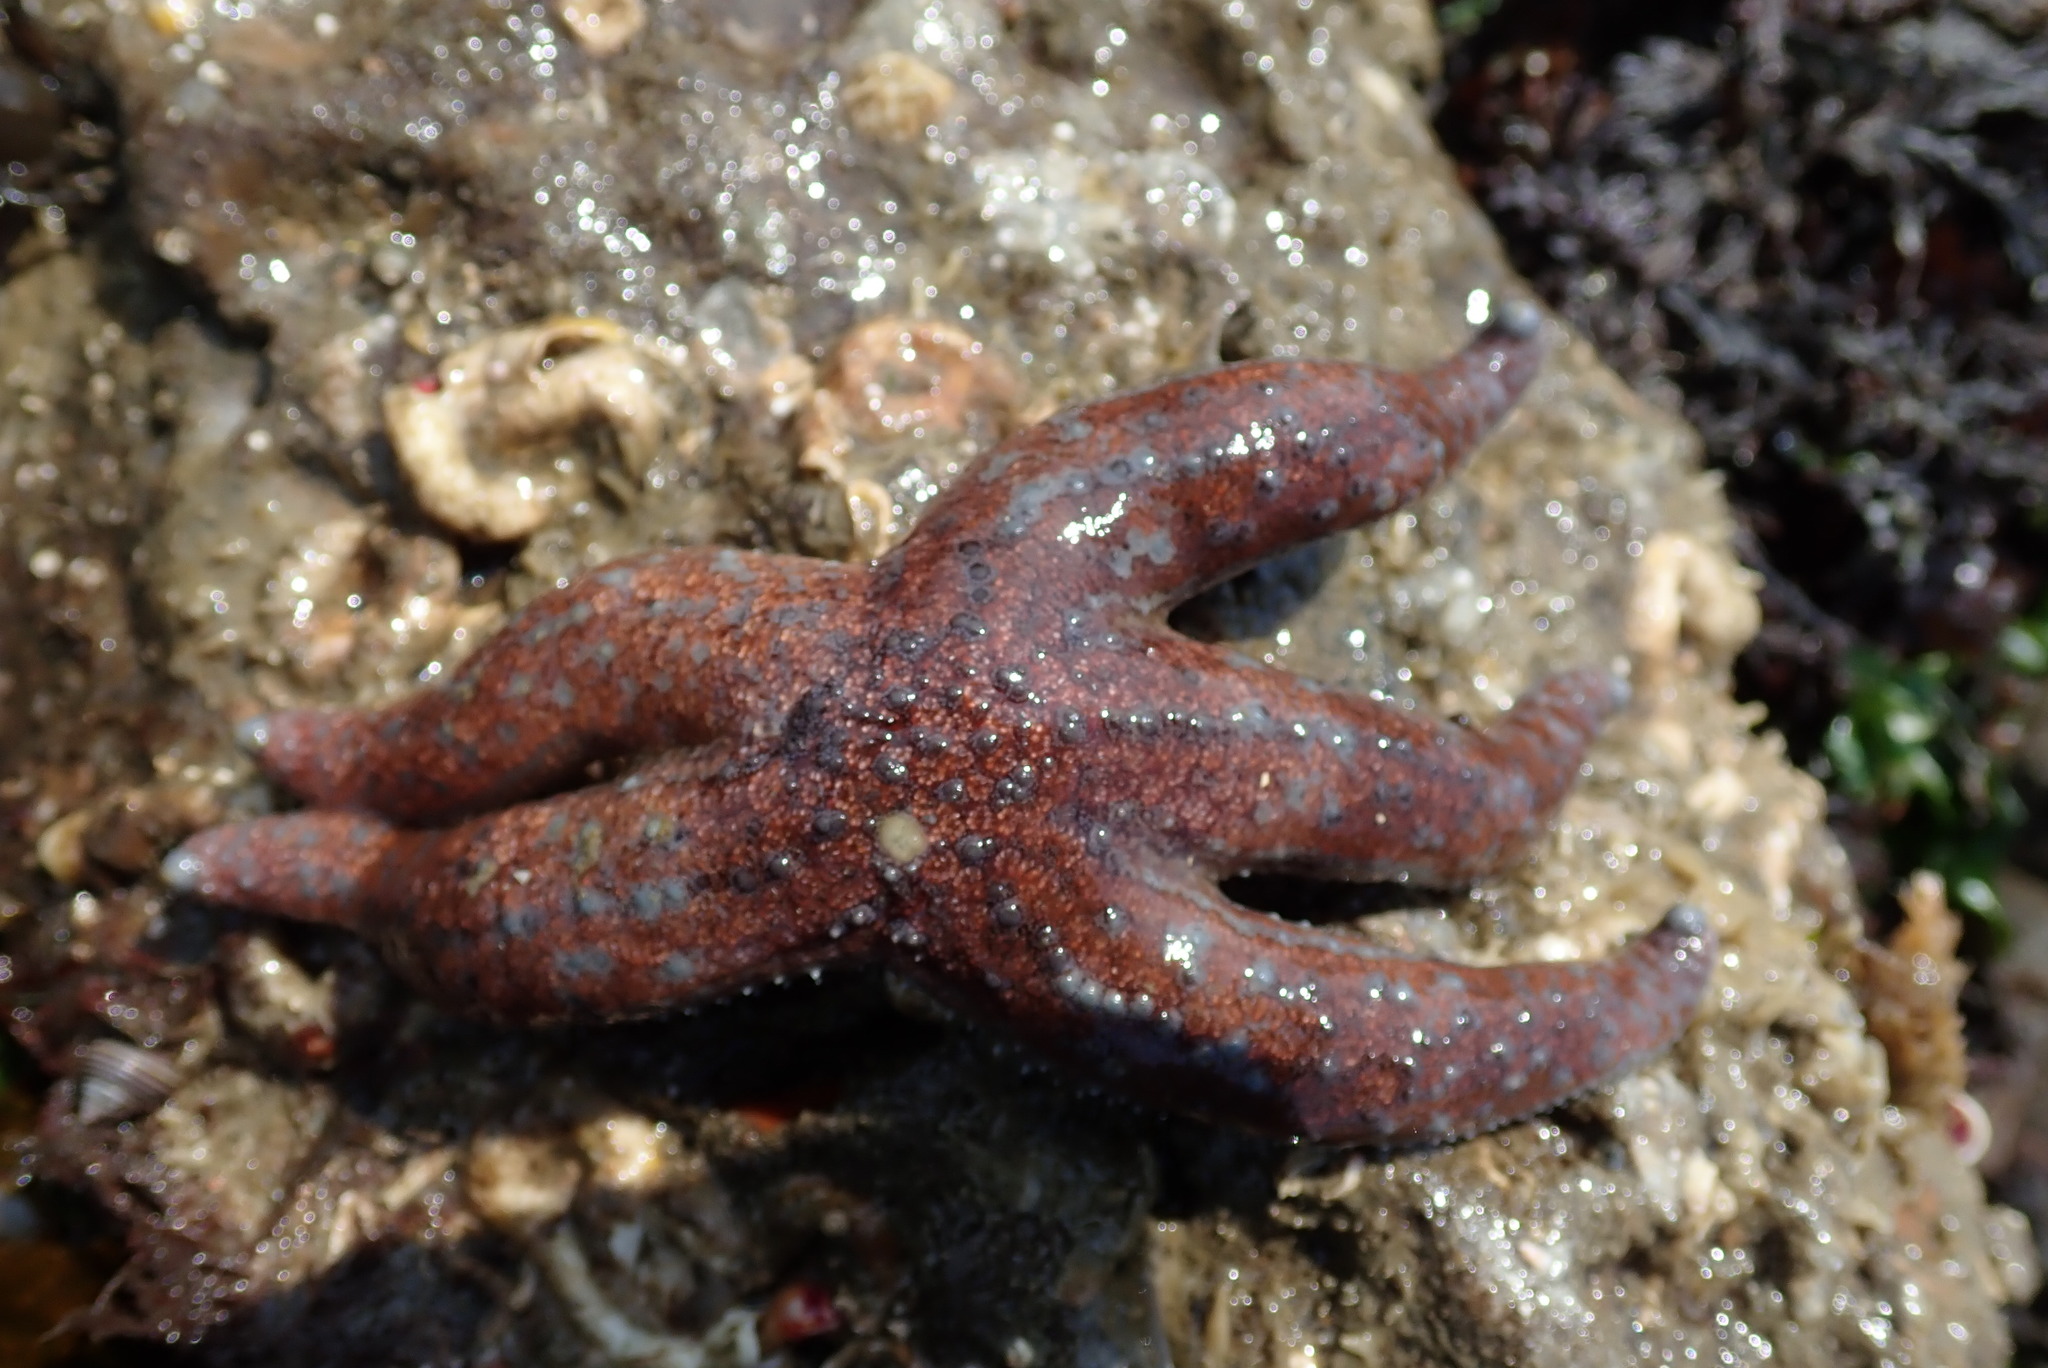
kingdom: Animalia
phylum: Echinodermata
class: Asteroidea
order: Forcipulatida
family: Asteriidae
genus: Evasterias
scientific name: Evasterias troschelii
